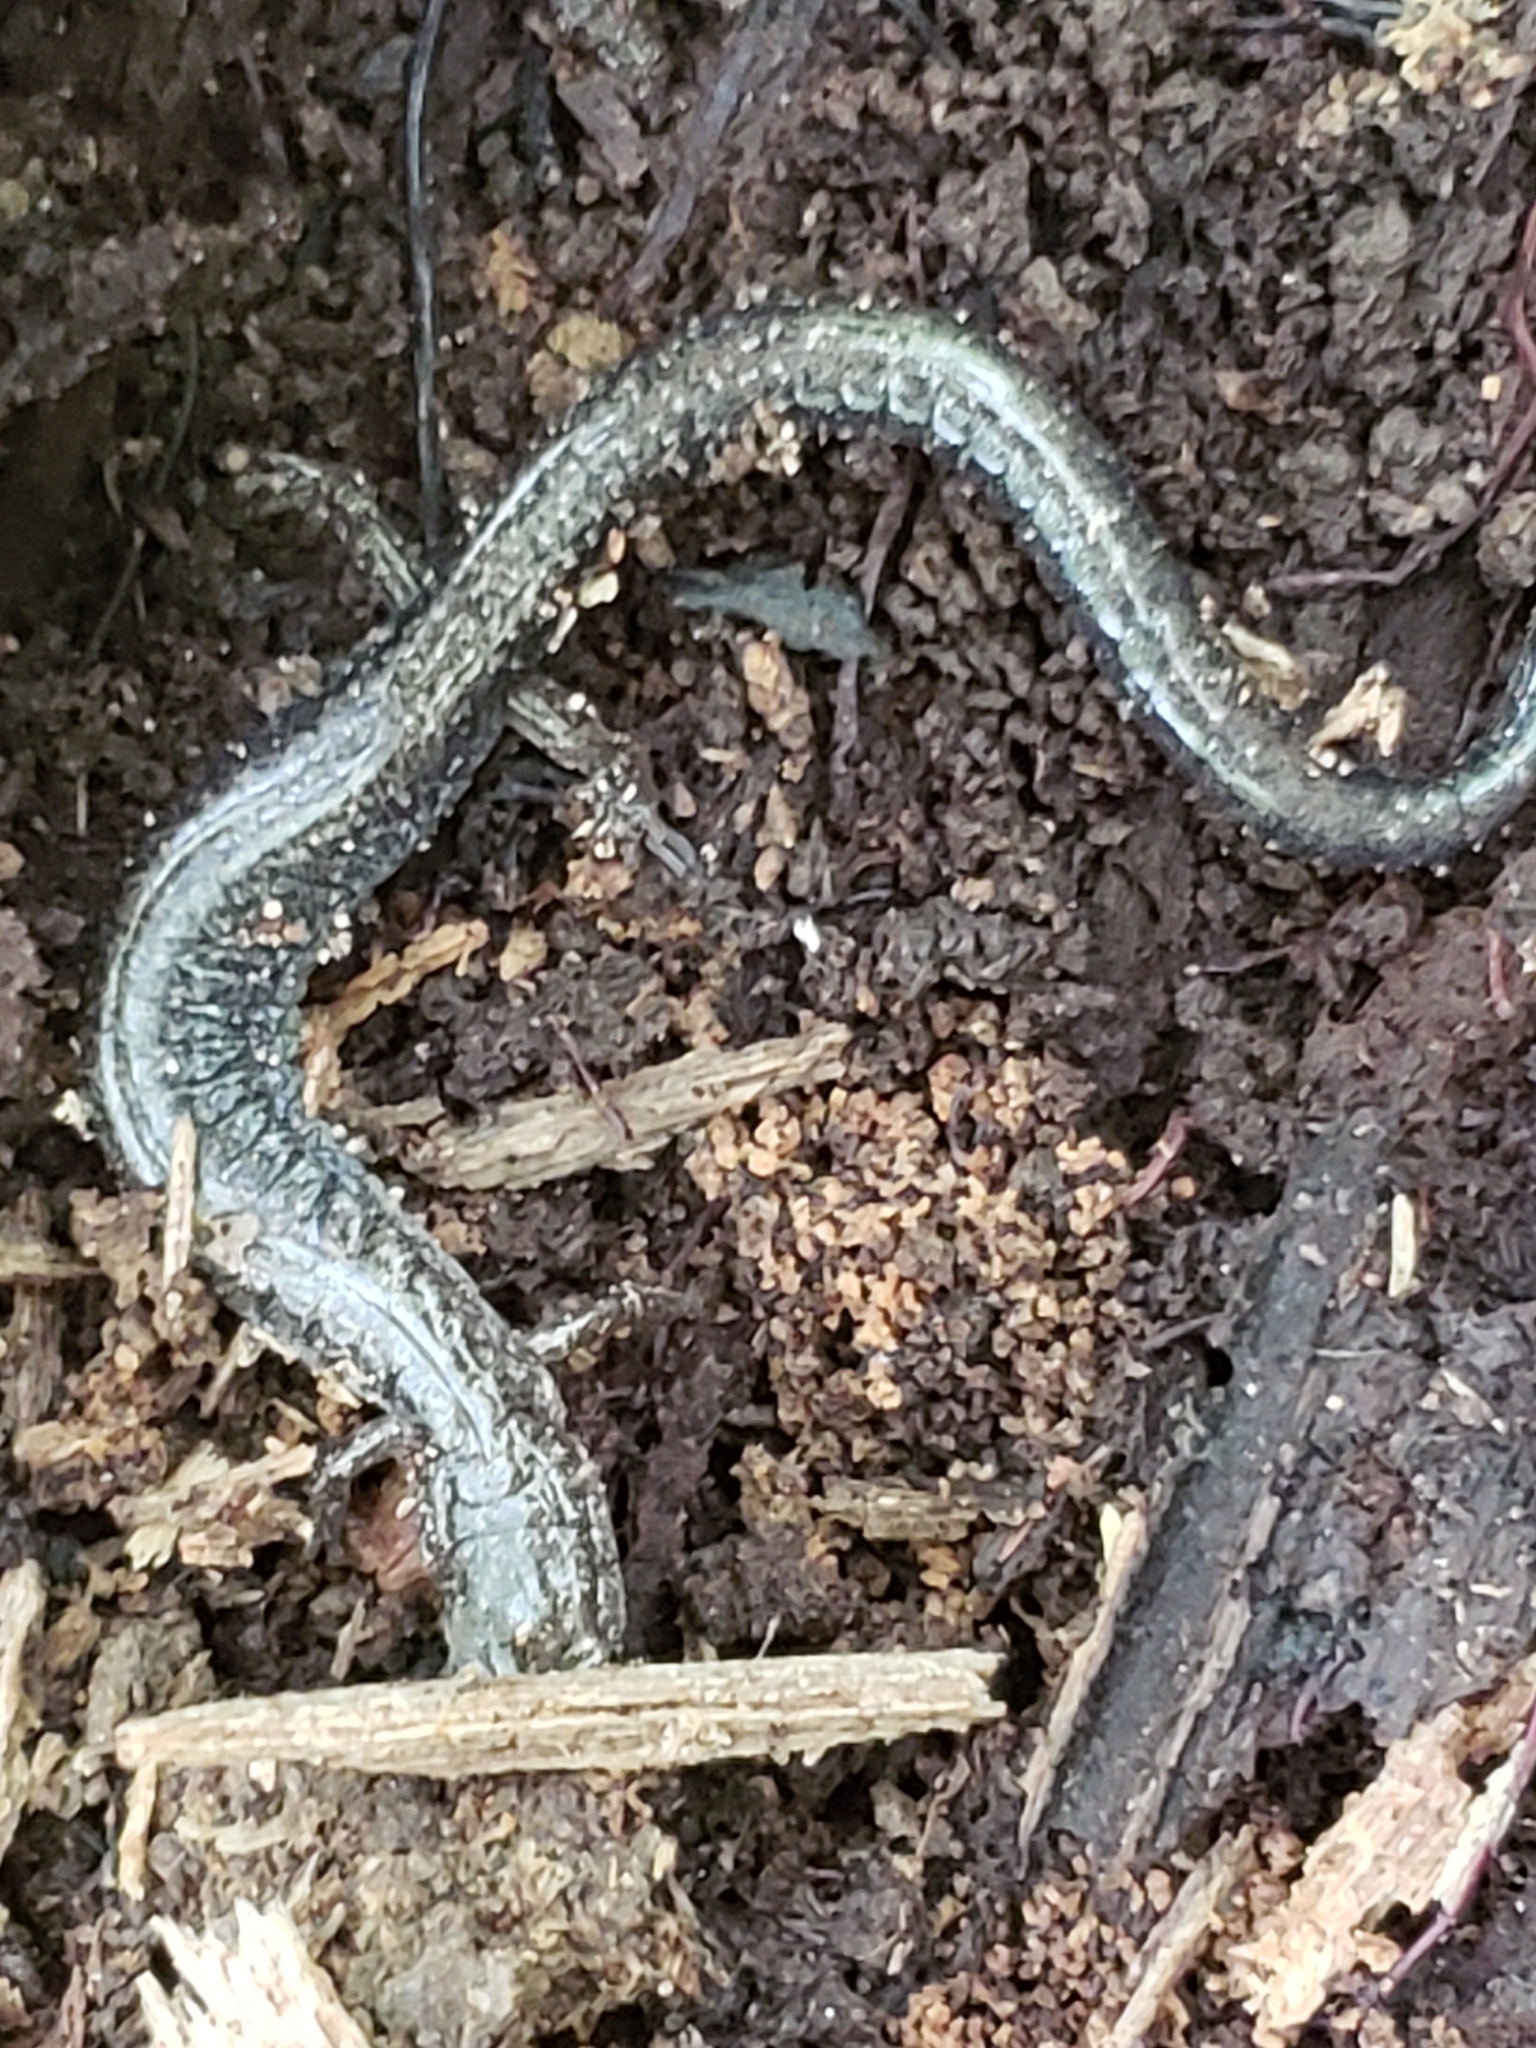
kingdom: Animalia
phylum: Chordata
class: Amphibia
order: Caudata
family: Plethodontidae
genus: Plethodon
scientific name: Plethodon cinereus
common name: Redback salamander
